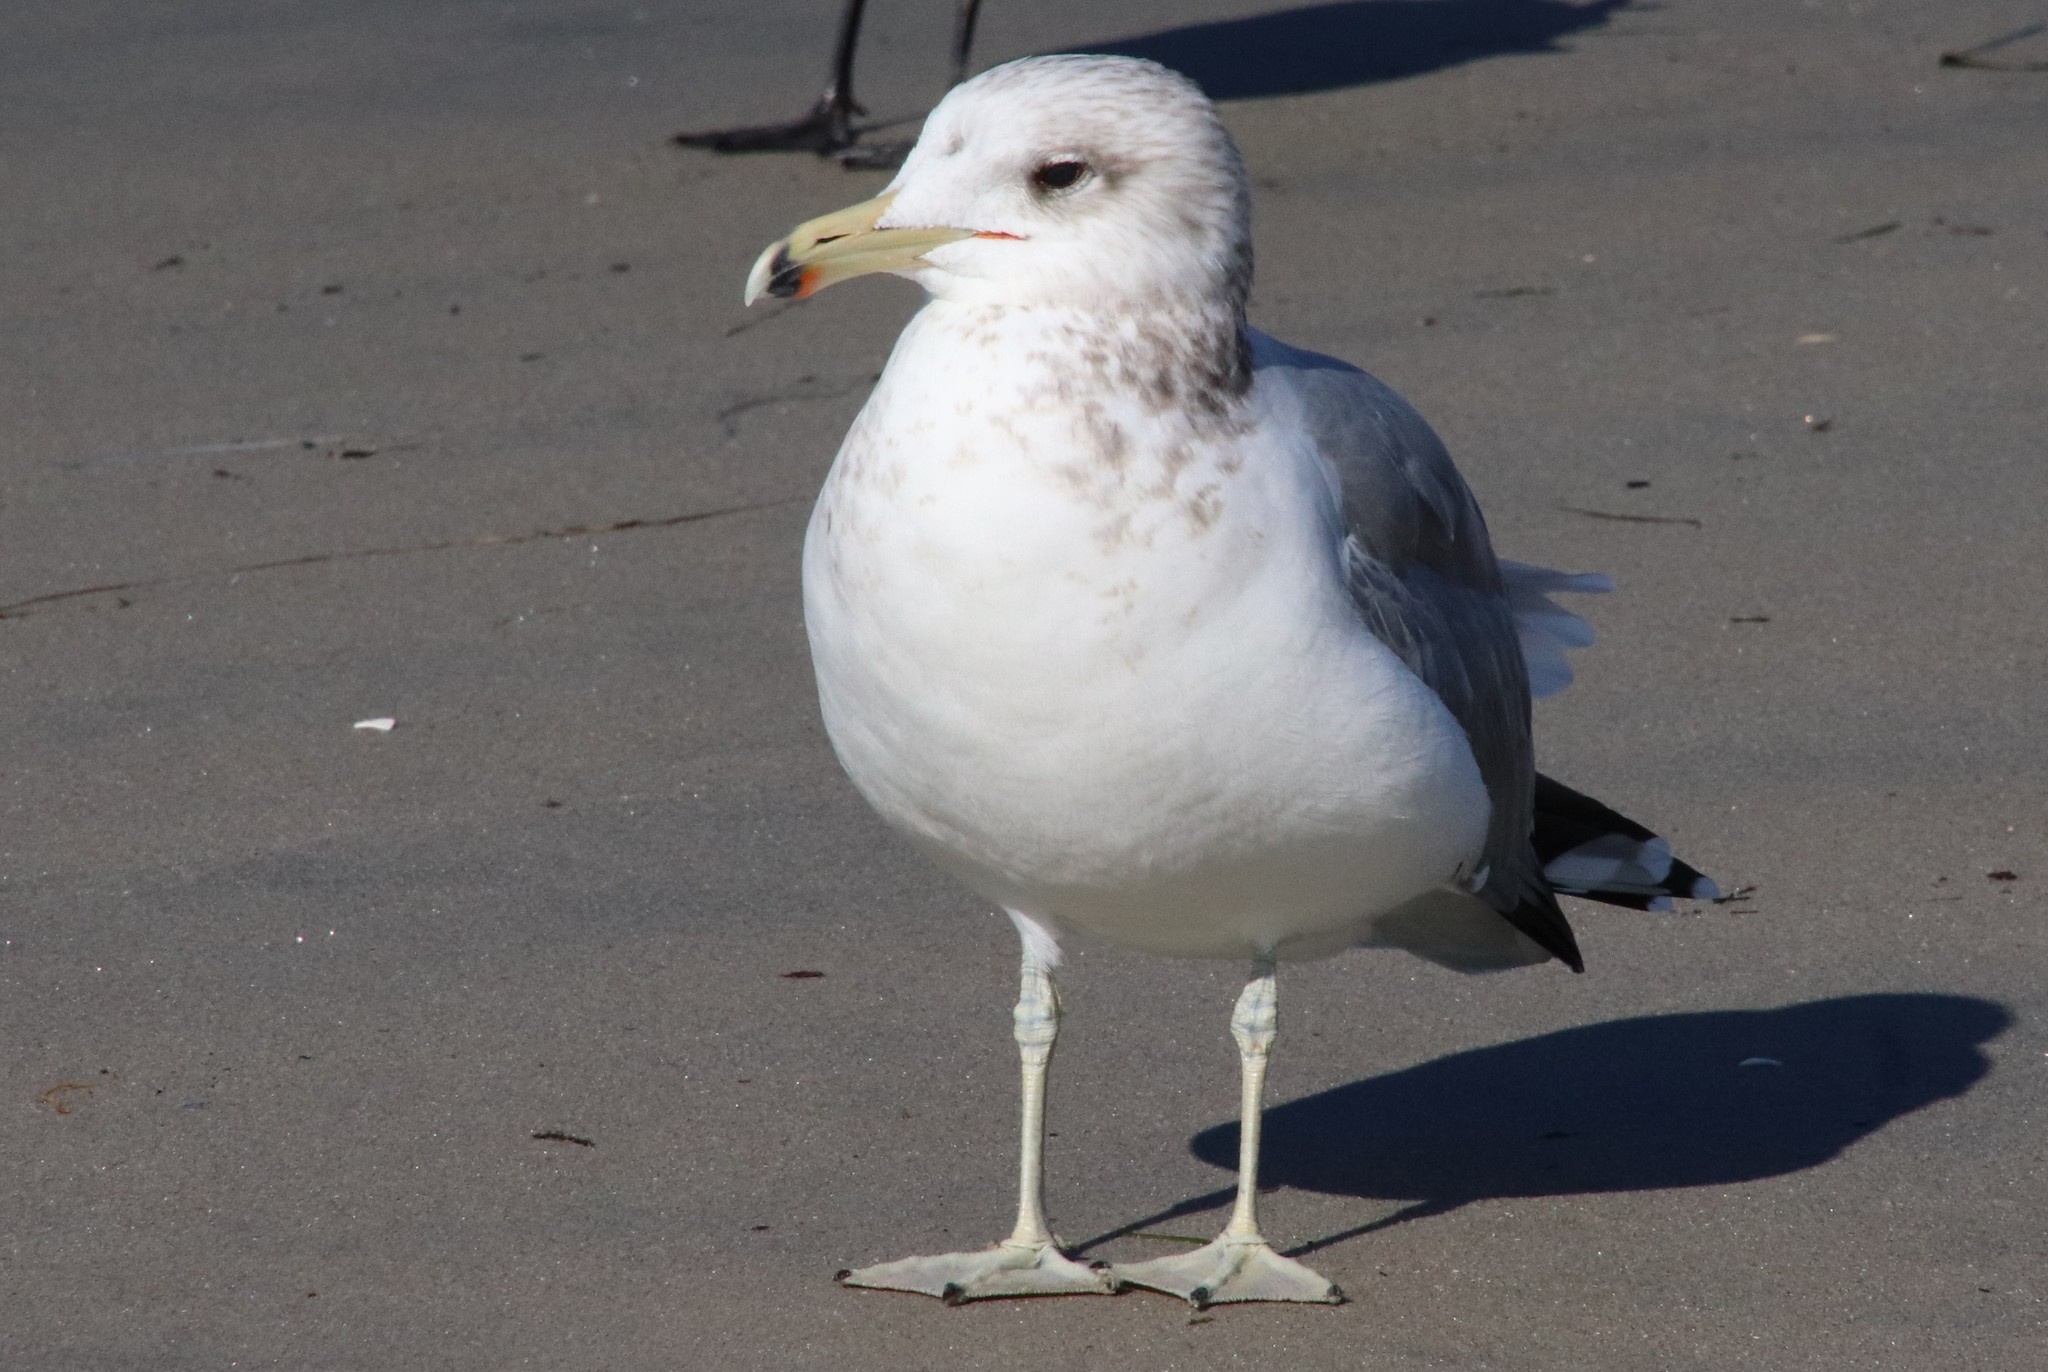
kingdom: Animalia
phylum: Chordata
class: Aves
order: Charadriiformes
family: Laridae
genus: Larus
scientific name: Larus californicus
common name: California gull
